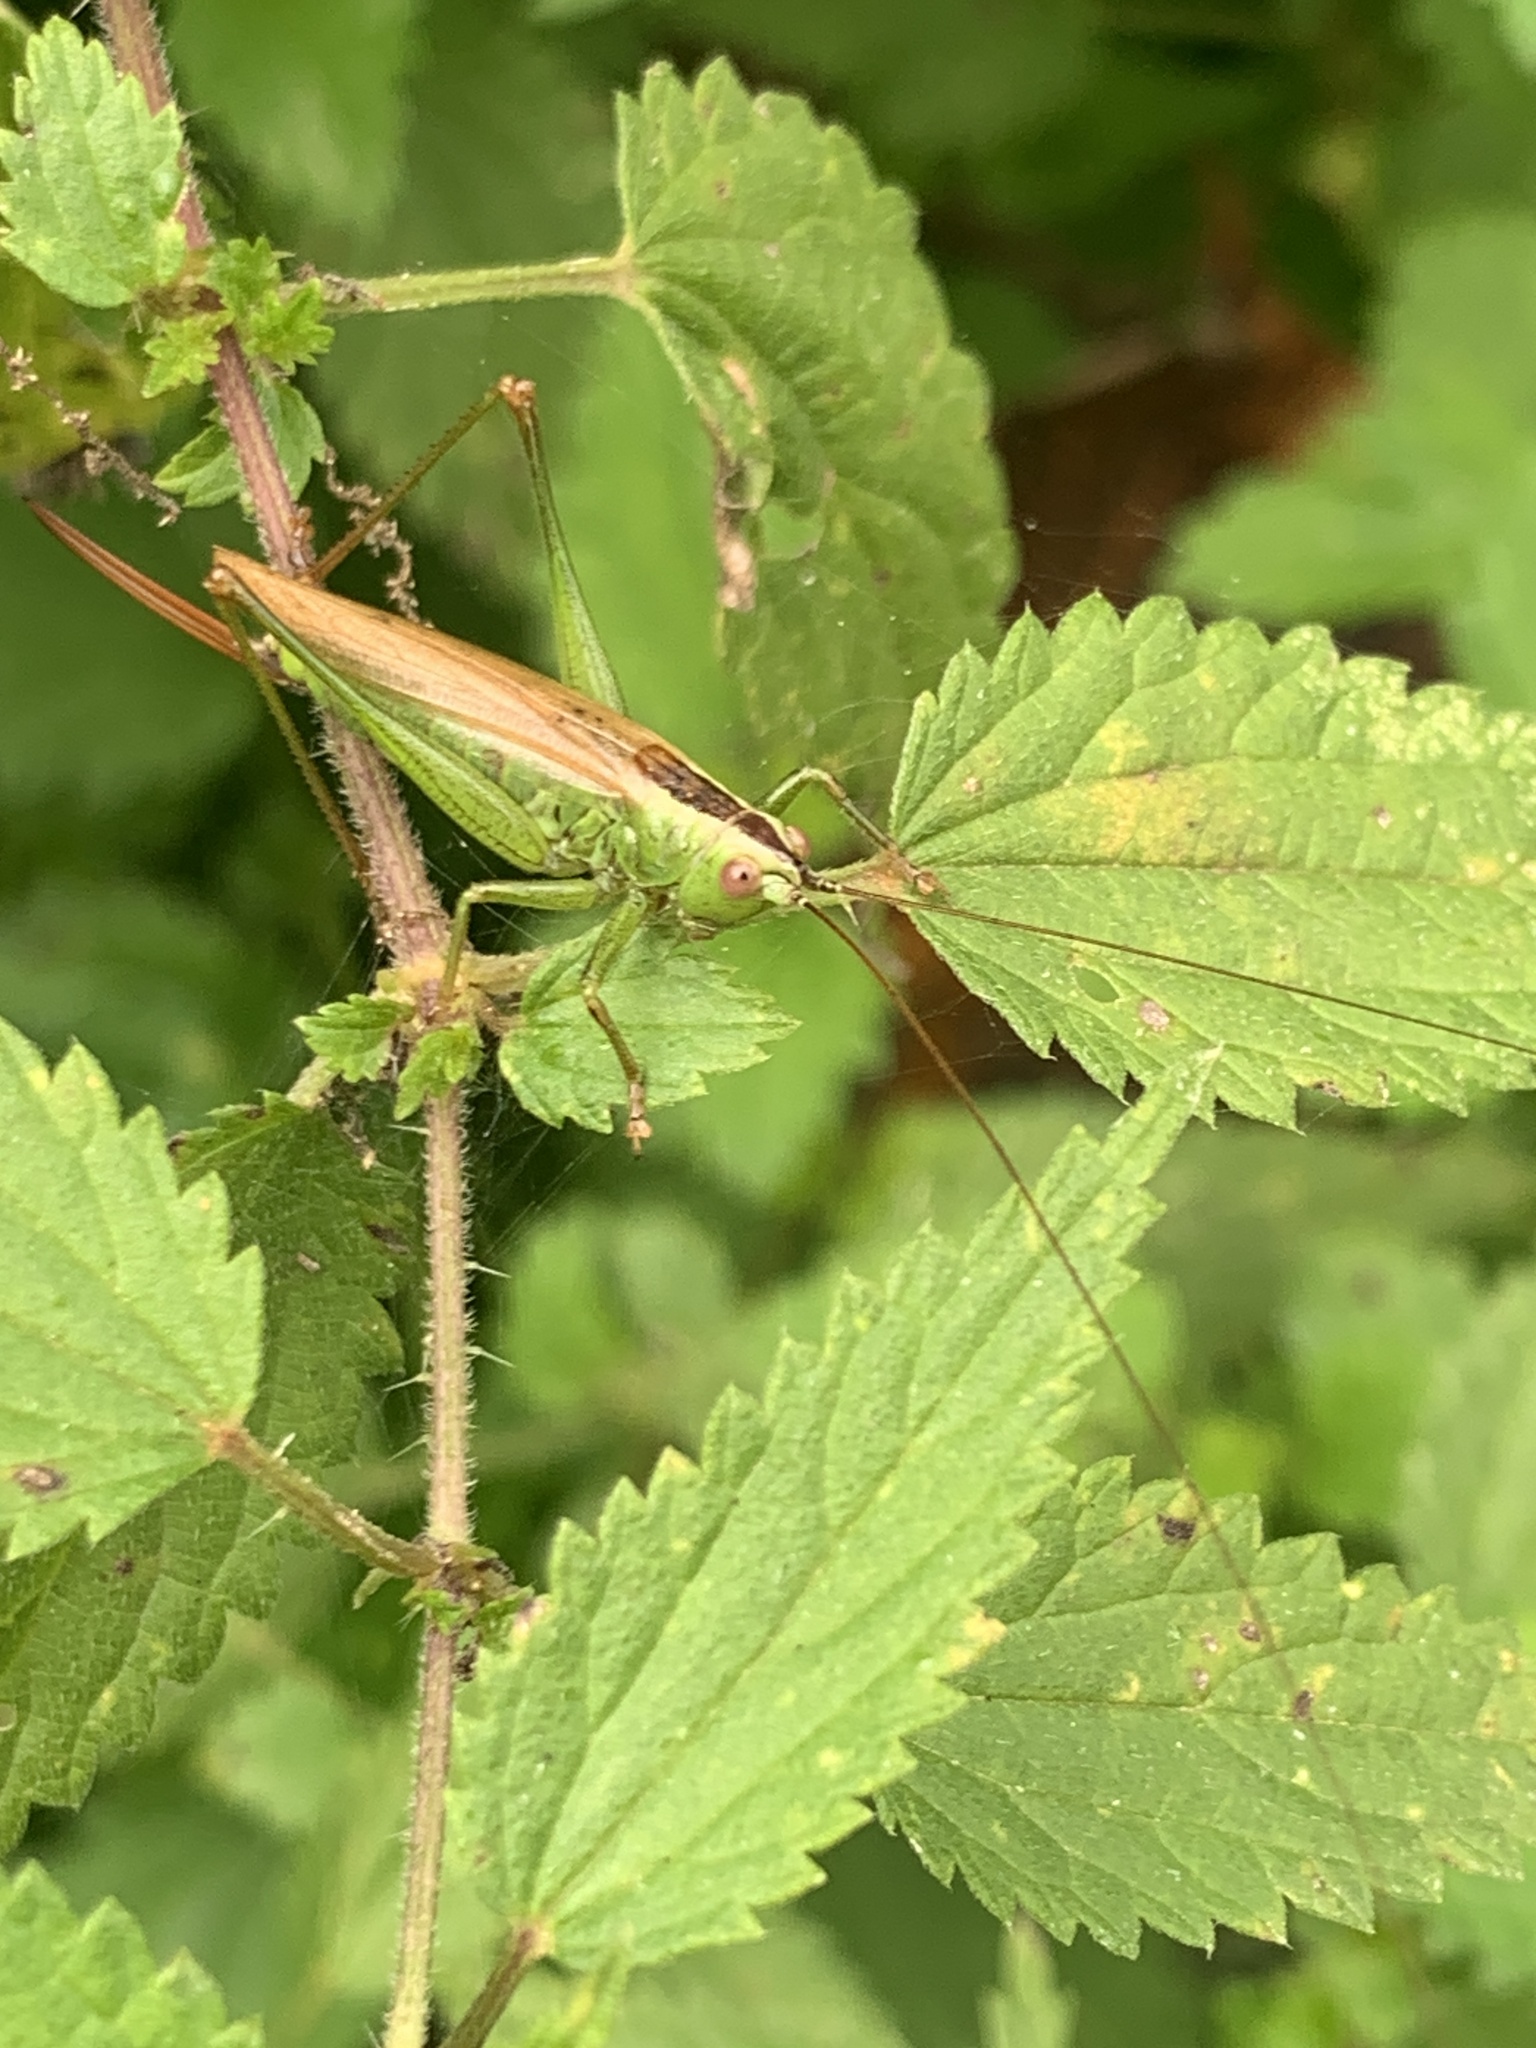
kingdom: Animalia
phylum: Arthropoda
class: Insecta
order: Orthoptera
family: Tettigoniidae
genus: Conocephalus
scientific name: Conocephalus fuscus
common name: Long-winged conehead
